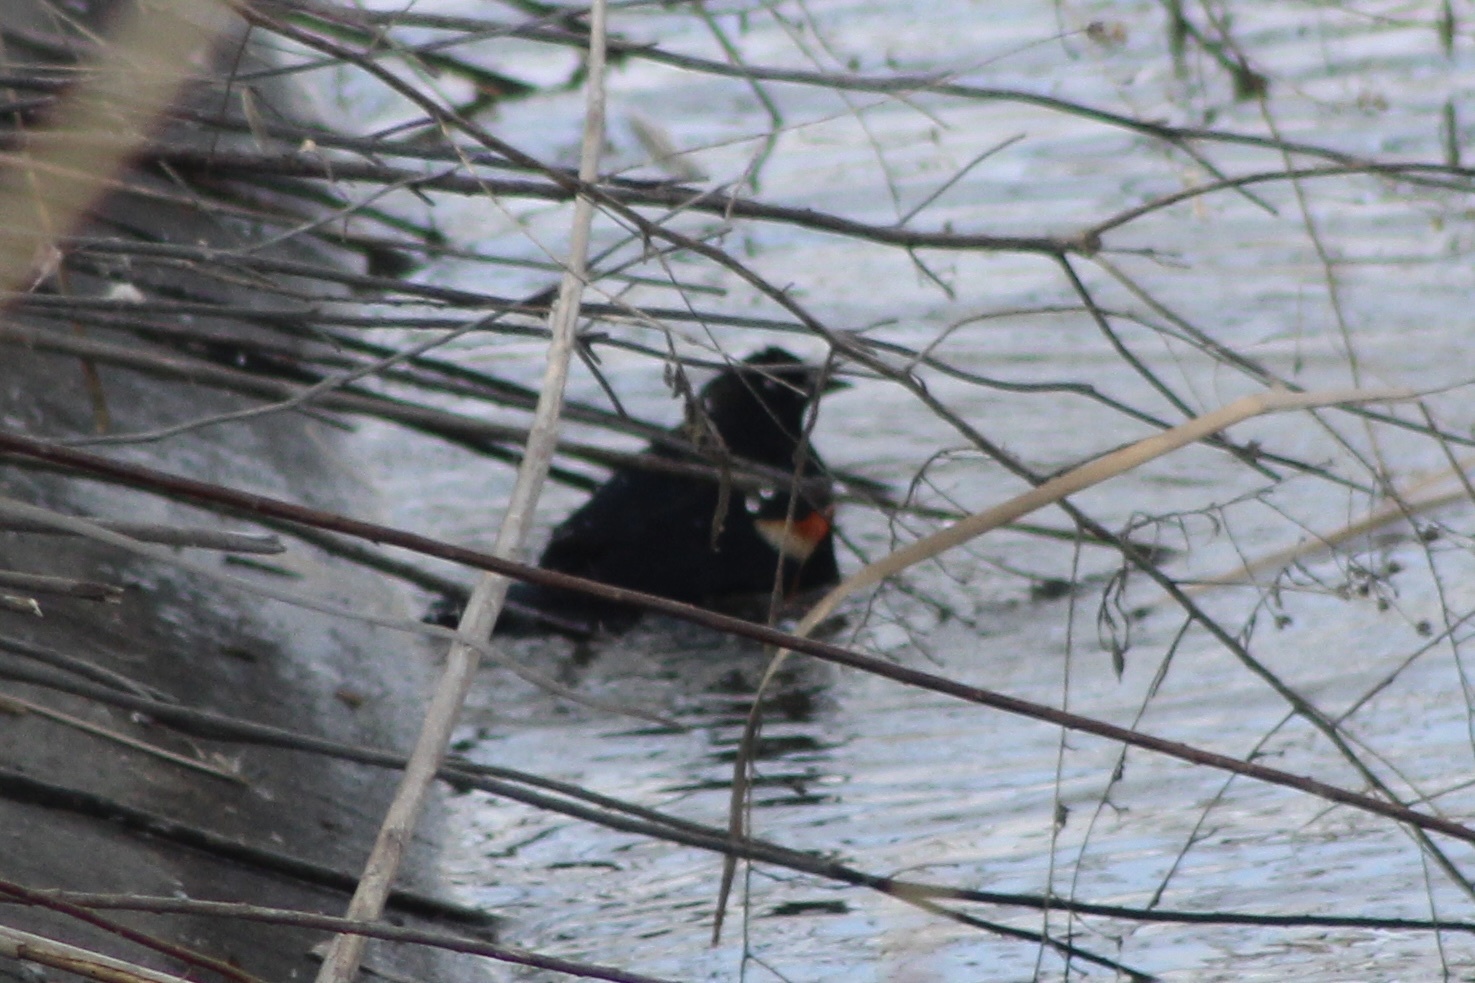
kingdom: Animalia
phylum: Chordata
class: Aves
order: Passeriformes
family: Icteridae
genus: Agelaius
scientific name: Agelaius phoeniceus
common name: Red-winged blackbird
